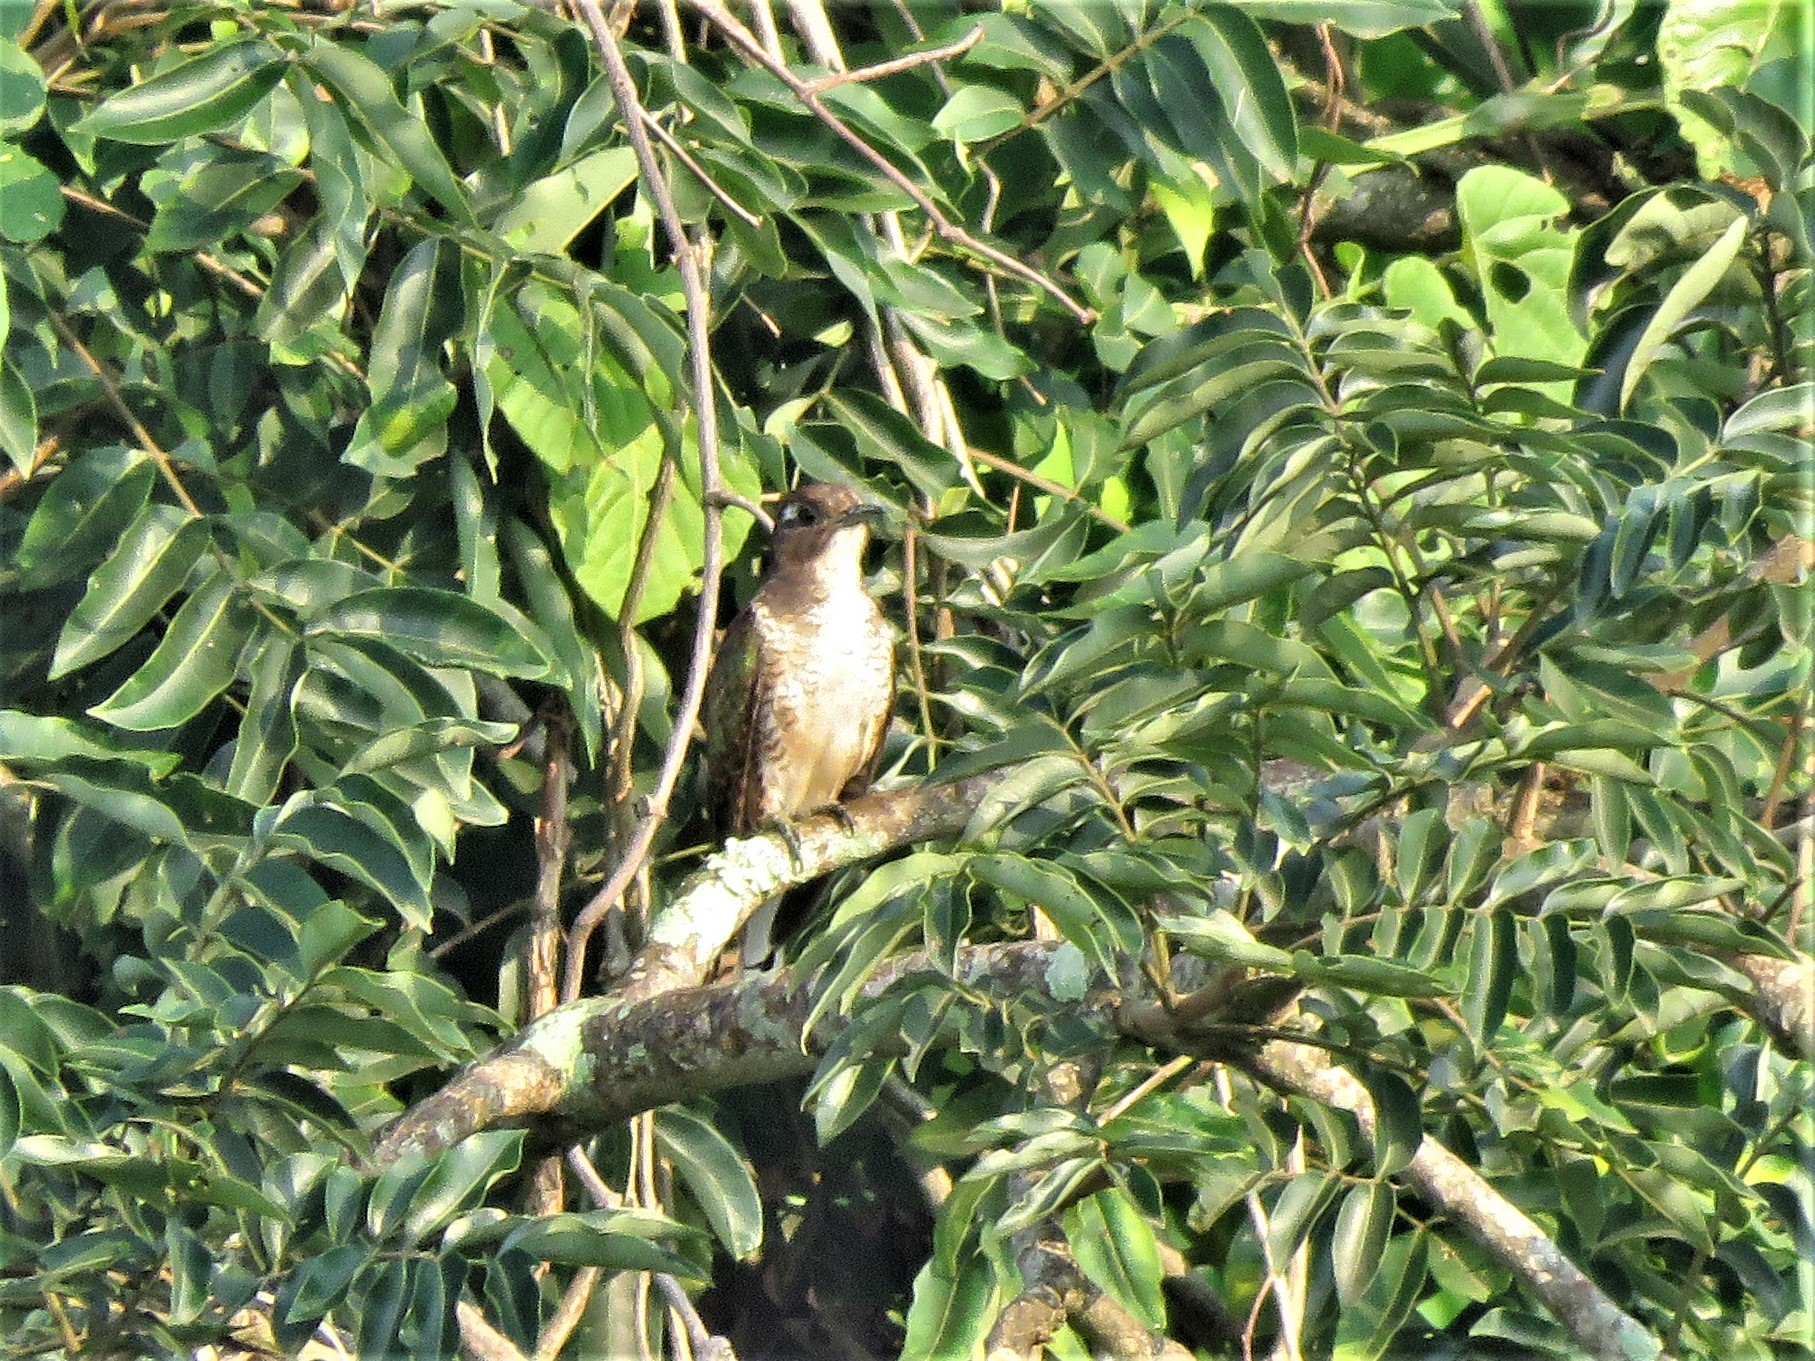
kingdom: Animalia
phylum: Chordata
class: Aves
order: Cuculiformes
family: Cuculidae
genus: Chrysococcyx
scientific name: Chrysococcyx klaas
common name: Klaas's cuckoo
